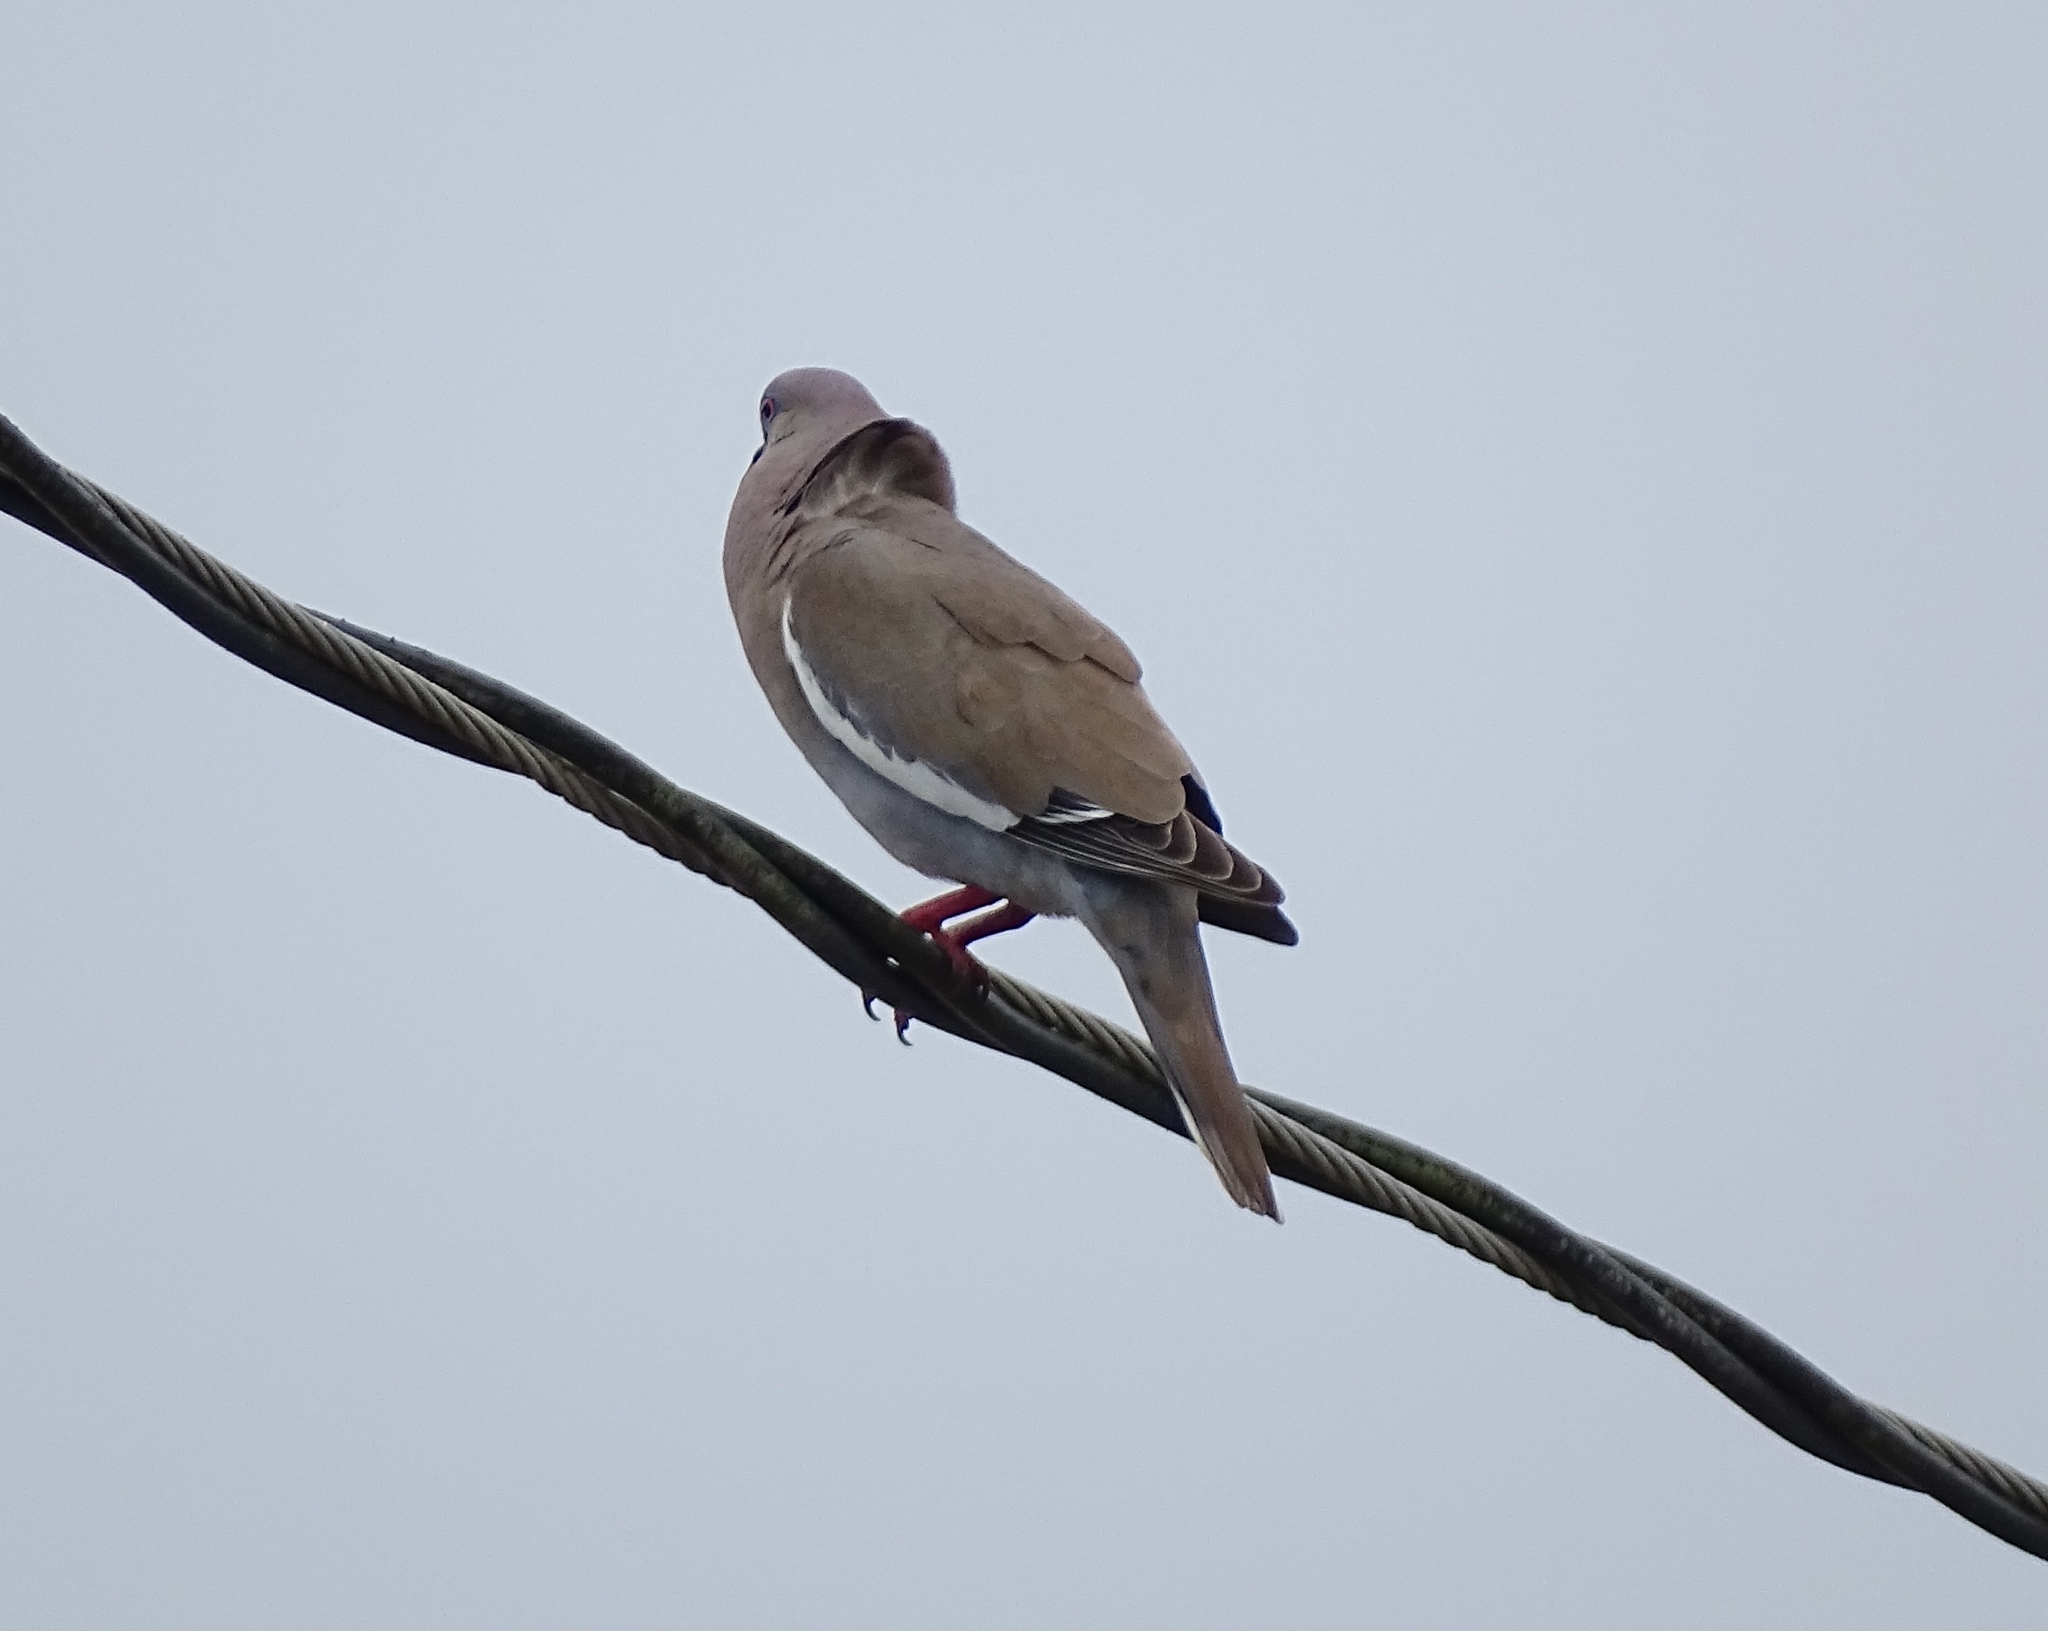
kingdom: Animalia
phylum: Chordata
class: Aves
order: Columbiformes
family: Columbidae
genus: Zenaida
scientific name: Zenaida asiatica
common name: White-winged dove
